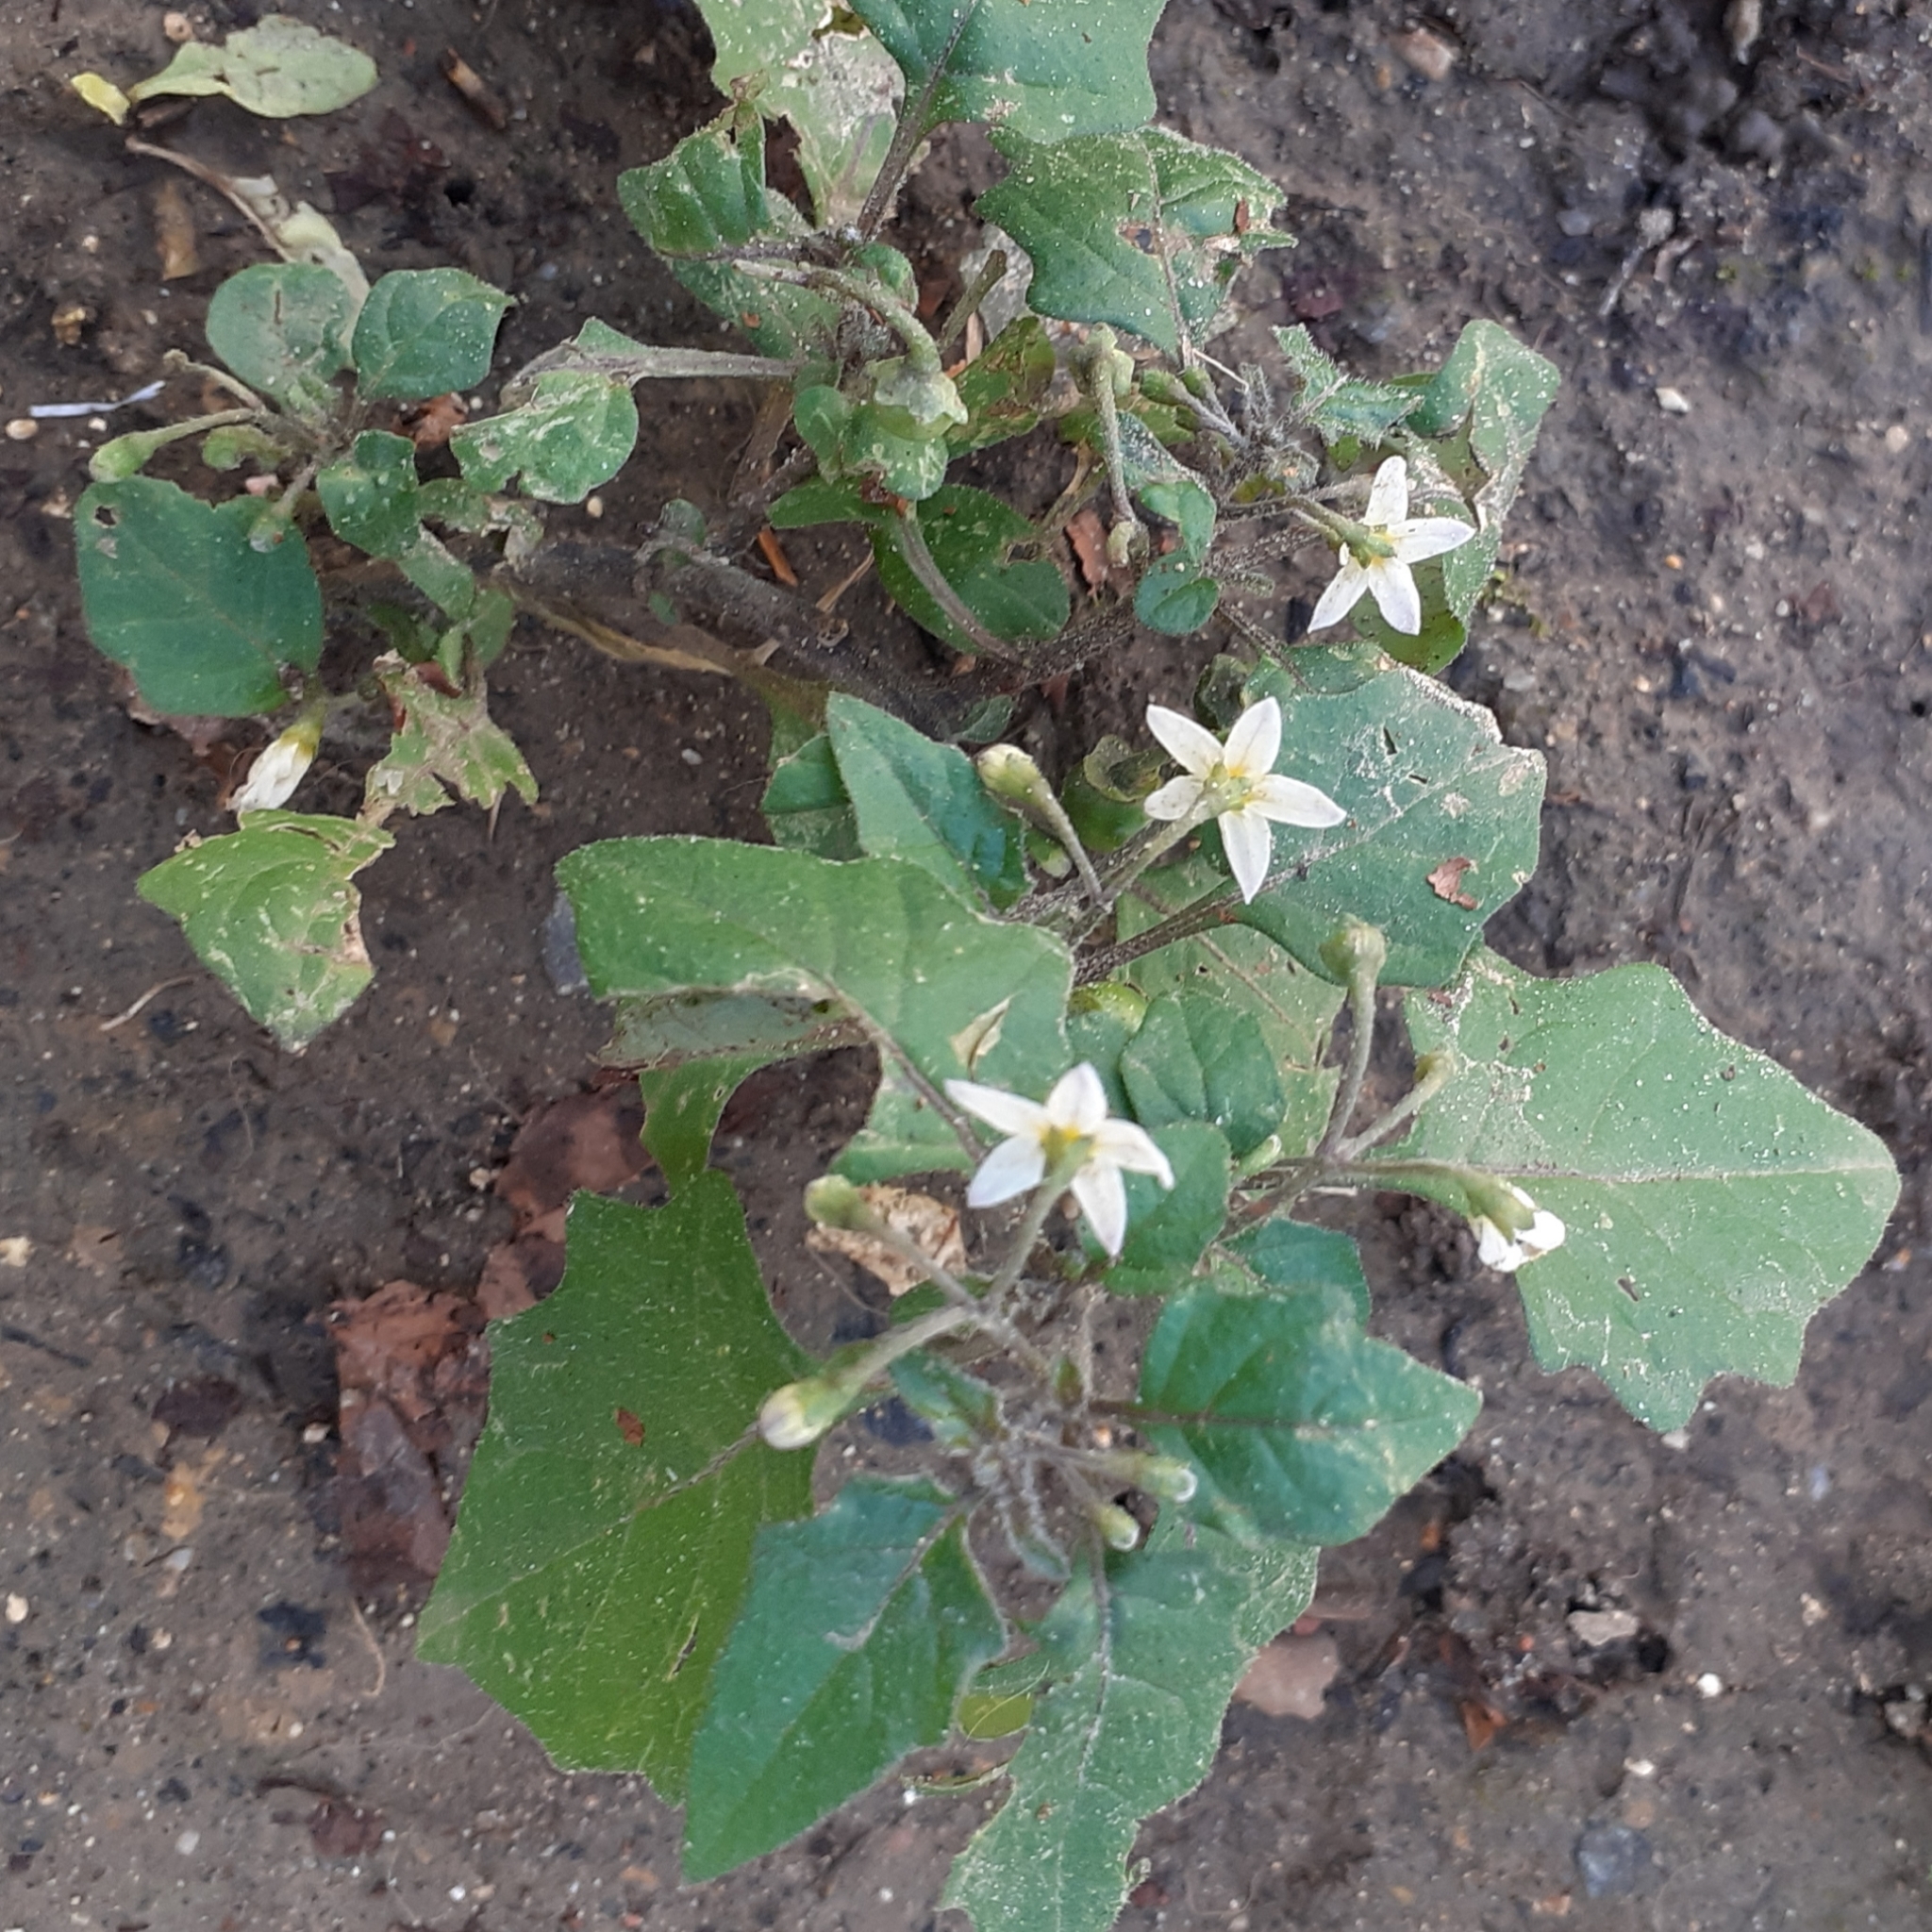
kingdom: Plantae
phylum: Tracheophyta
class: Magnoliopsida
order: Solanales
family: Solanaceae
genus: Solanum
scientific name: Solanum nigrum
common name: Black nightshade
